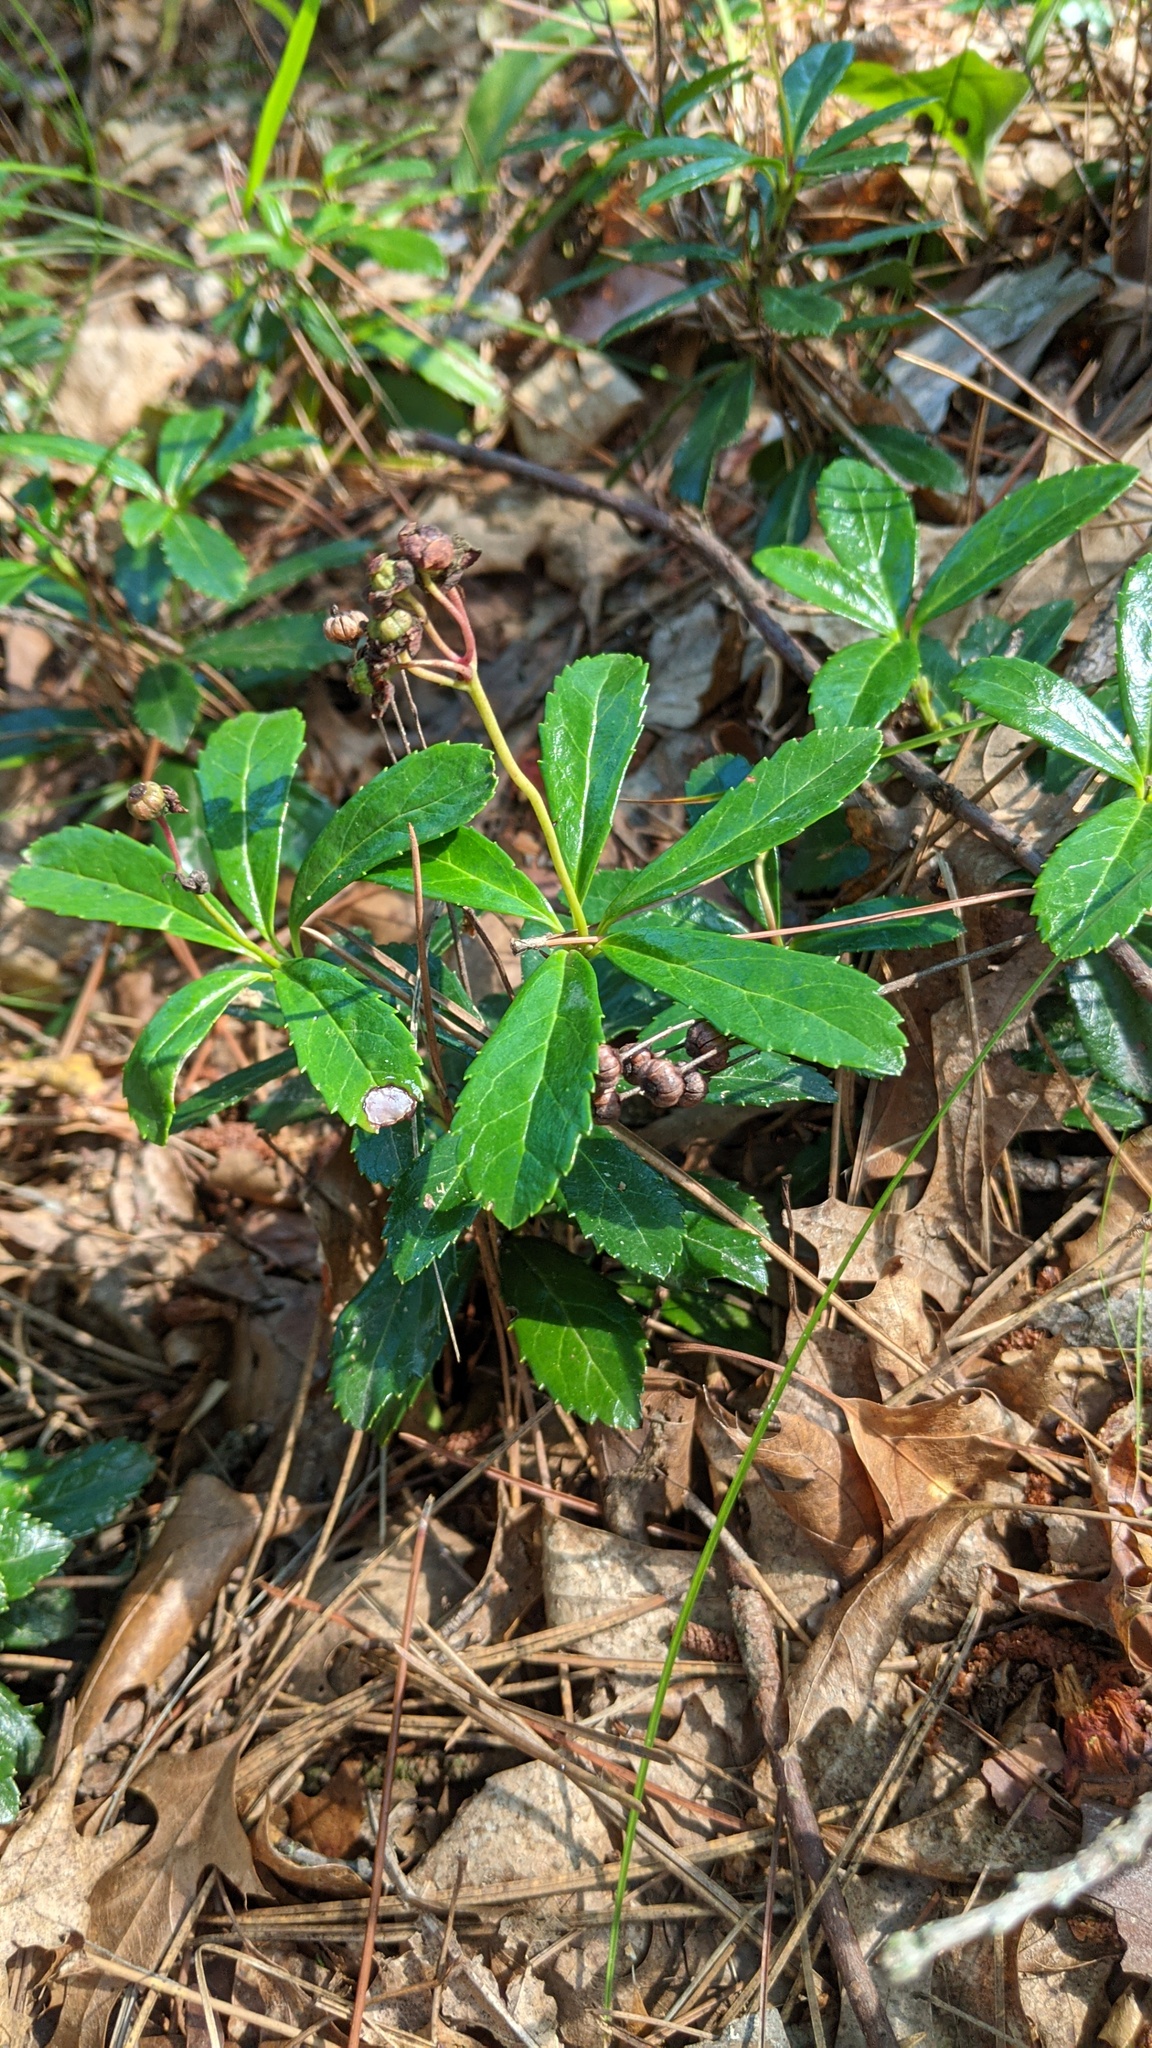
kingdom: Plantae
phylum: Tracheophyta
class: Magnoliopsida
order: Ericales
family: Ericaceae
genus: Chimaphila
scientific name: Chimaphila umbellata
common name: Pipsissewa
